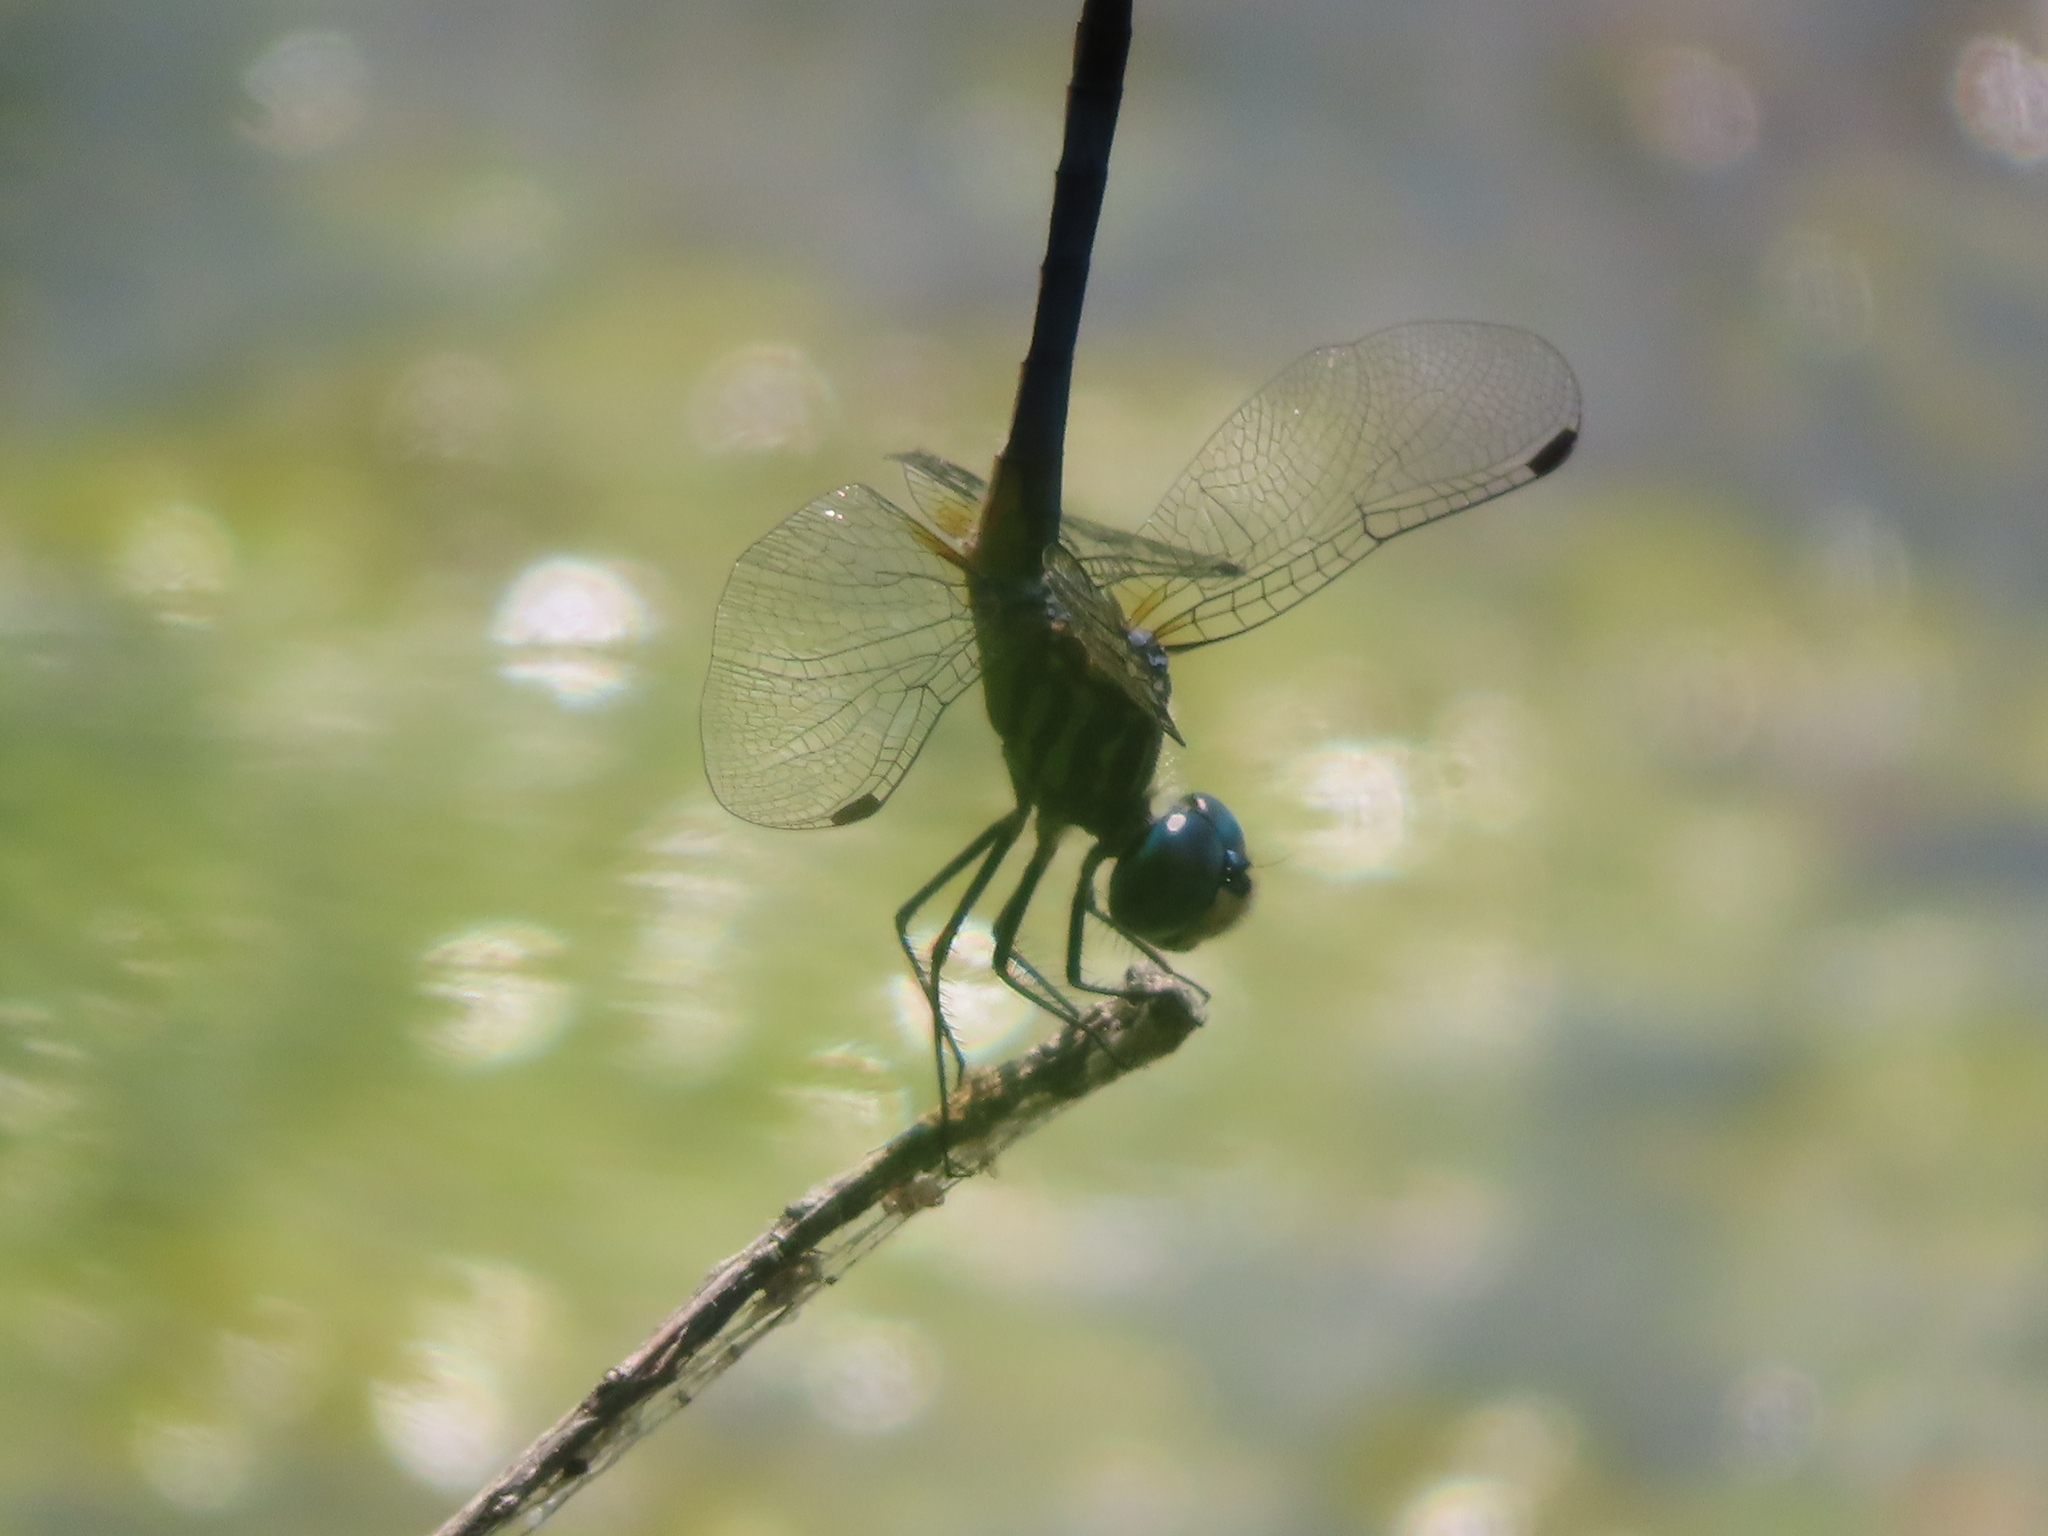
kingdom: Animalia
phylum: Arthropoda
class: Insecta
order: Odonata
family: Libellulidae
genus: Pachydiplax
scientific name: Pachydiplax longipennis
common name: Blue dasher
